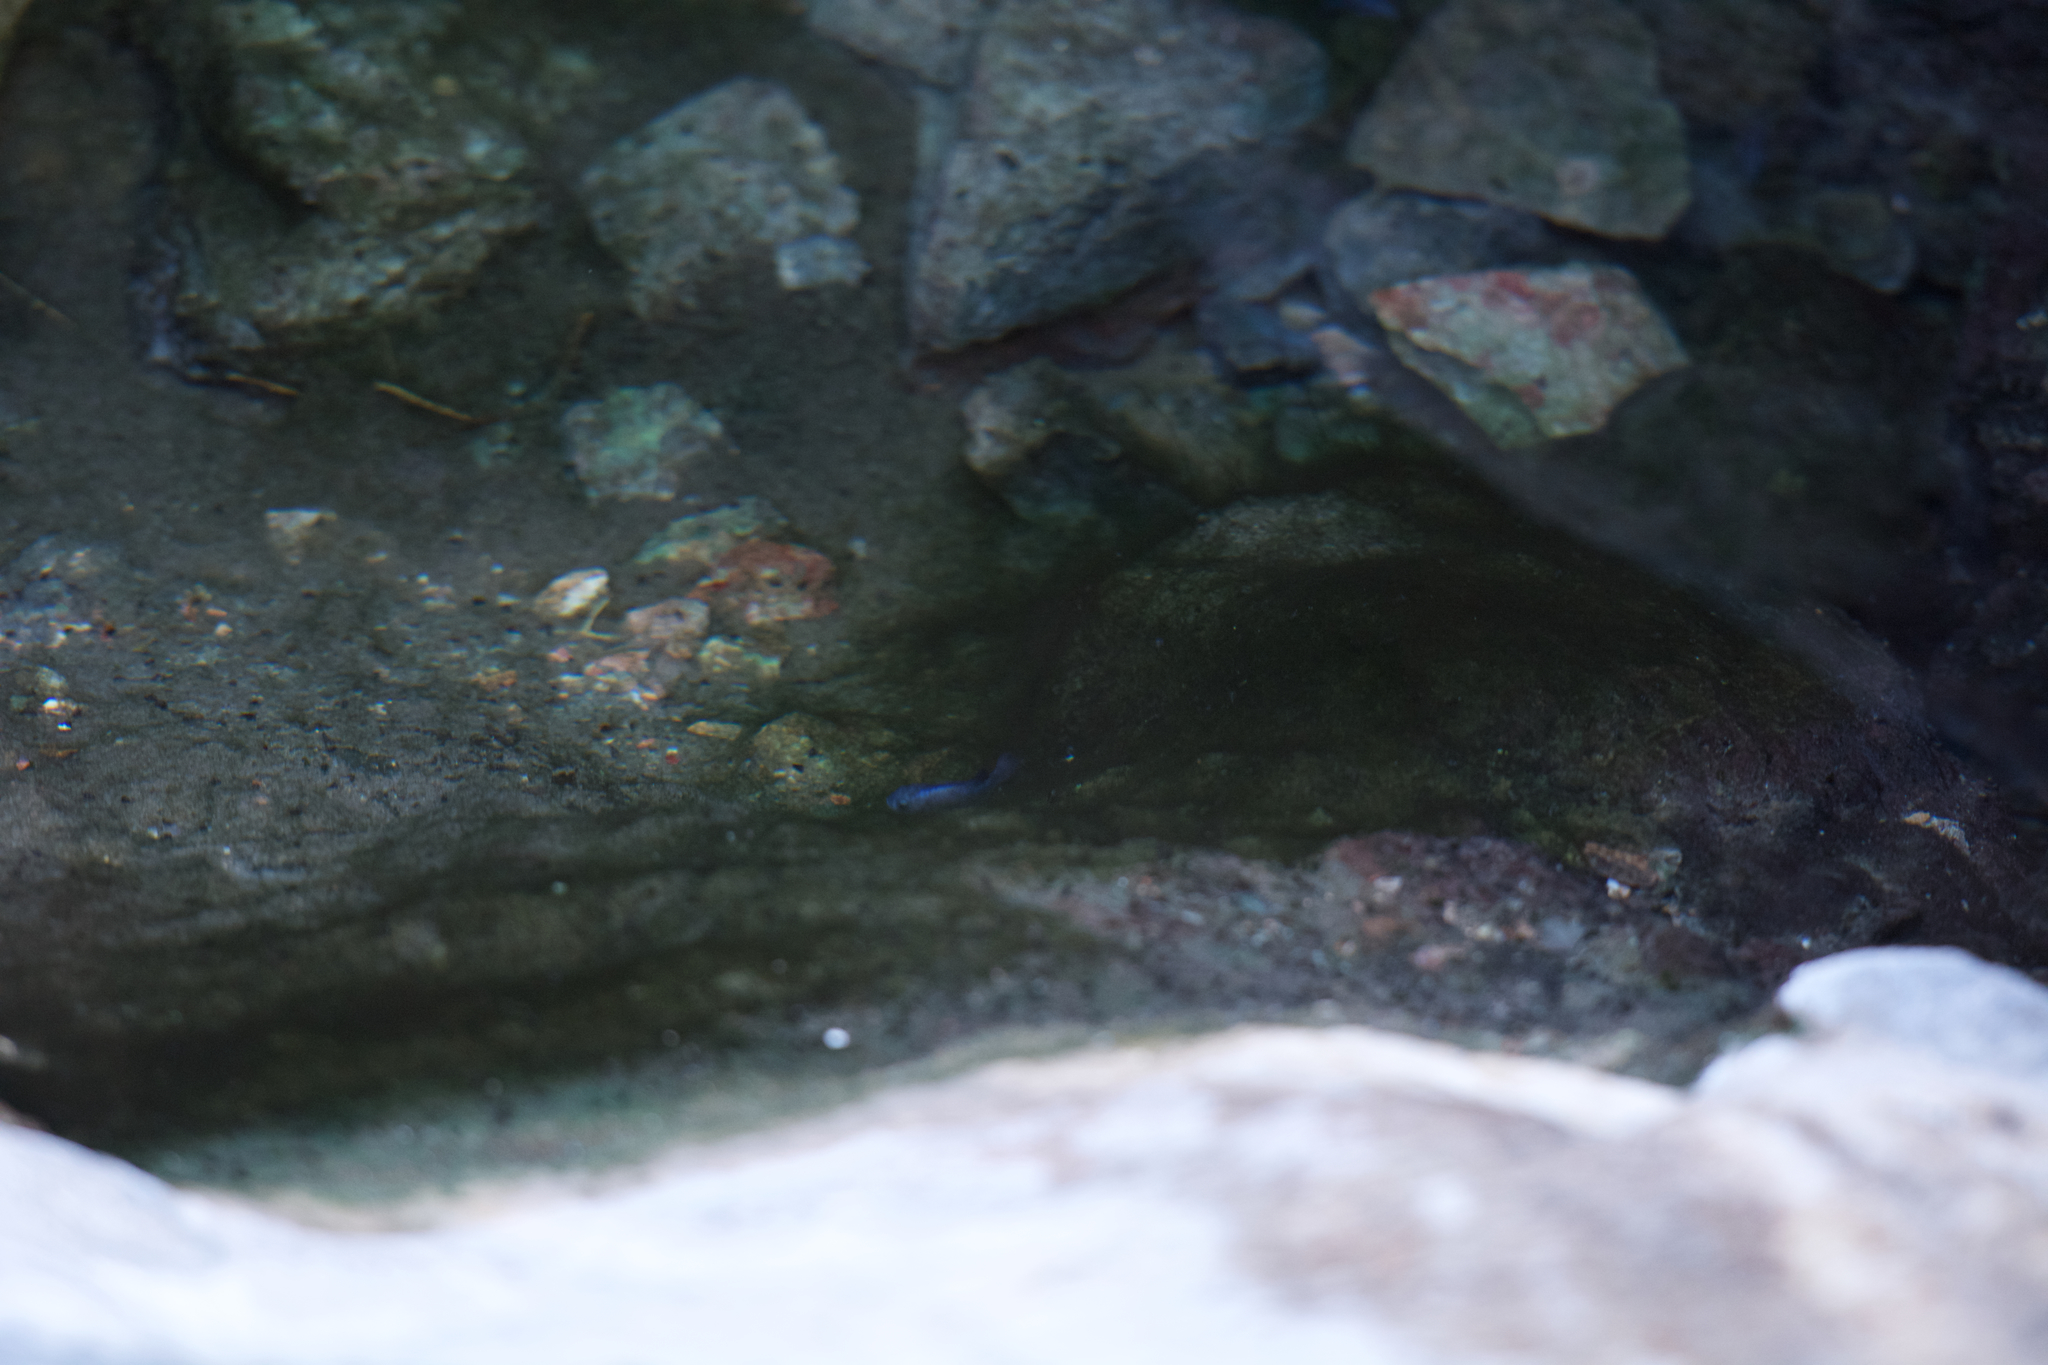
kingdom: Animalia
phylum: Chordata
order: Cyprinodontiformes
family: Cyprinodontidae
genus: Cyprinodon
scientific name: Cyprinodon diabolis
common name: Devils hole pupfish
